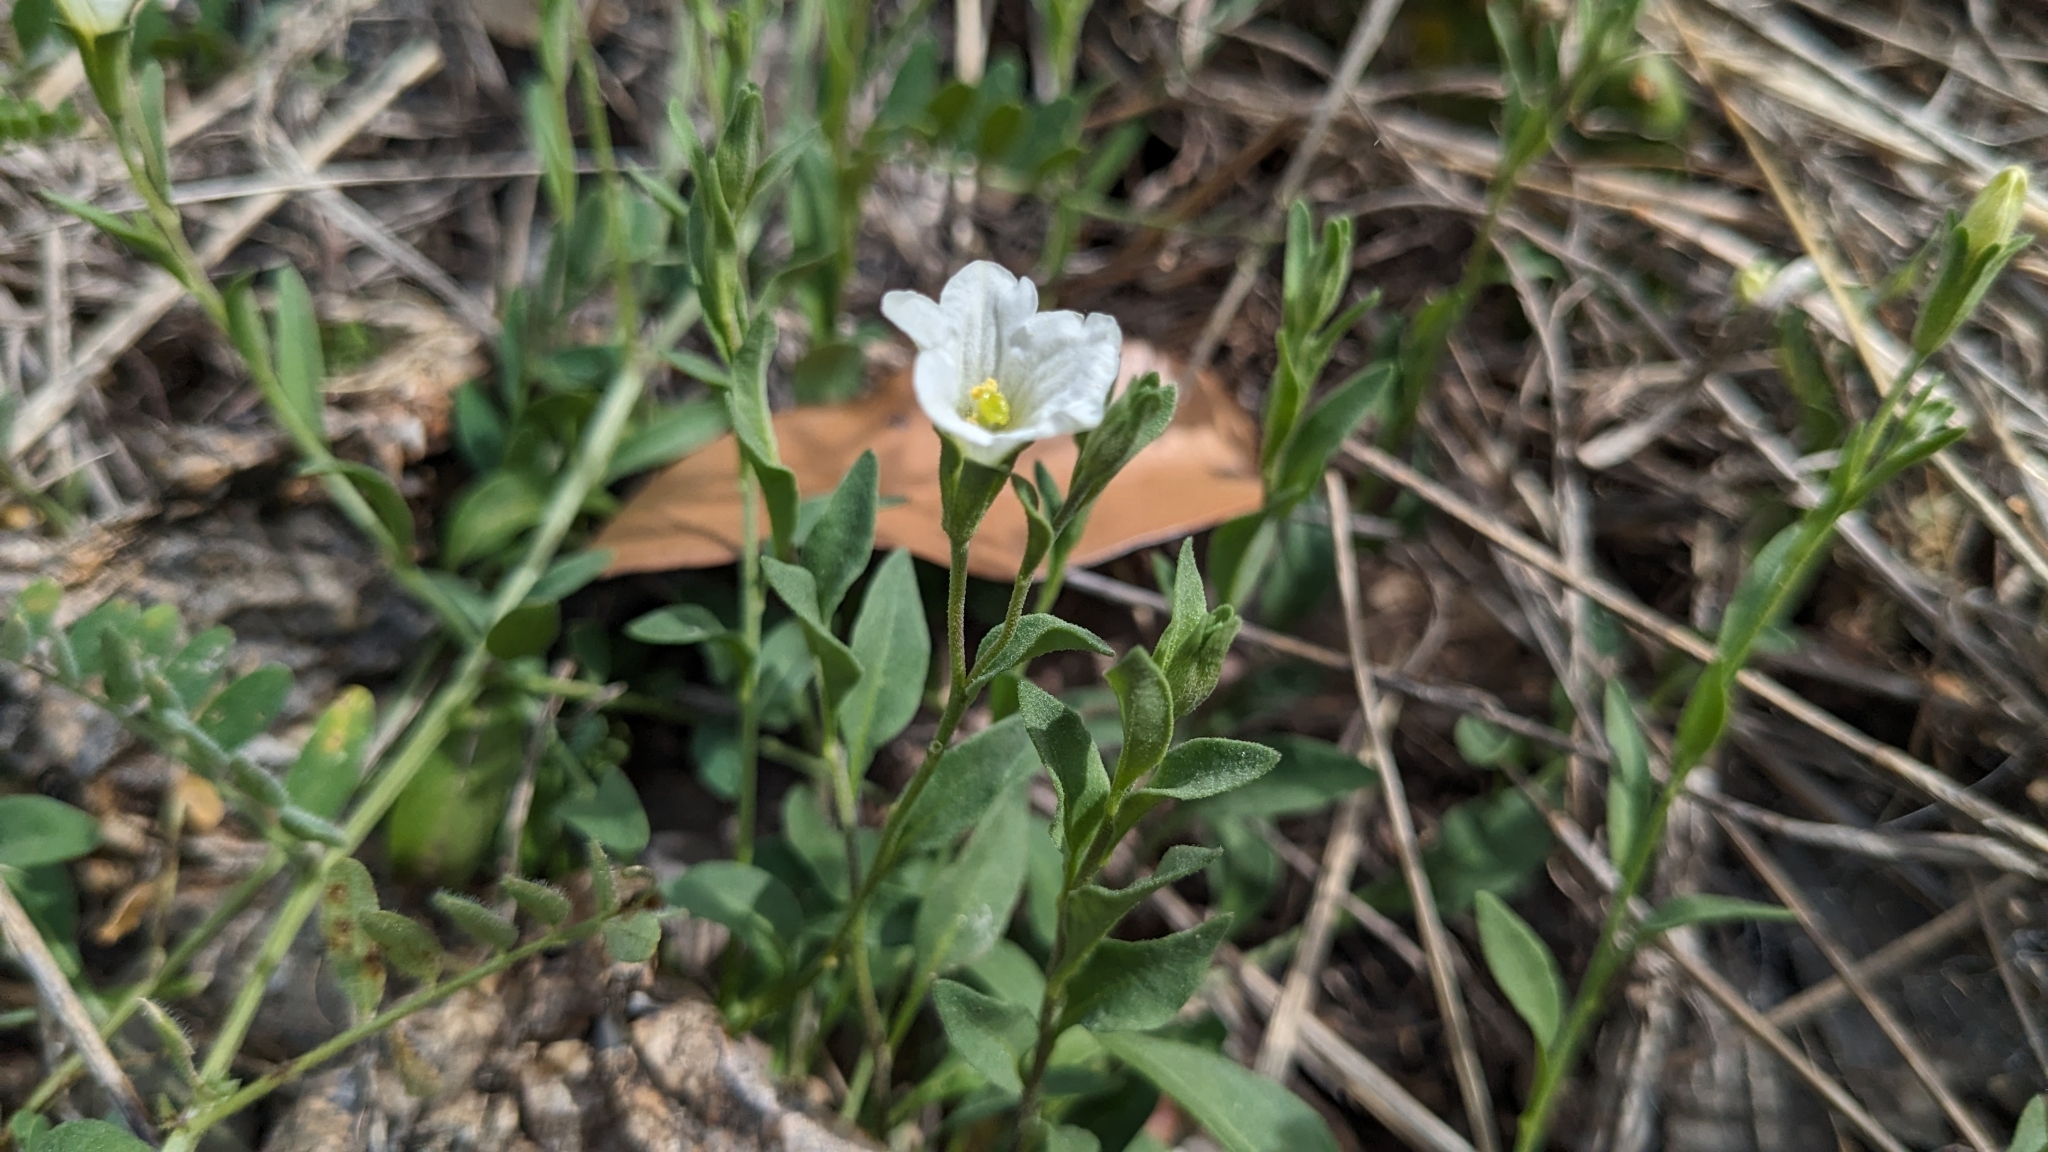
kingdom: Plantae
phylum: Tracheophyta
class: Magnoliopsida
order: Solanales
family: Solanaceae
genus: Salpiglossis
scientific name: Salpiglossis erecta
